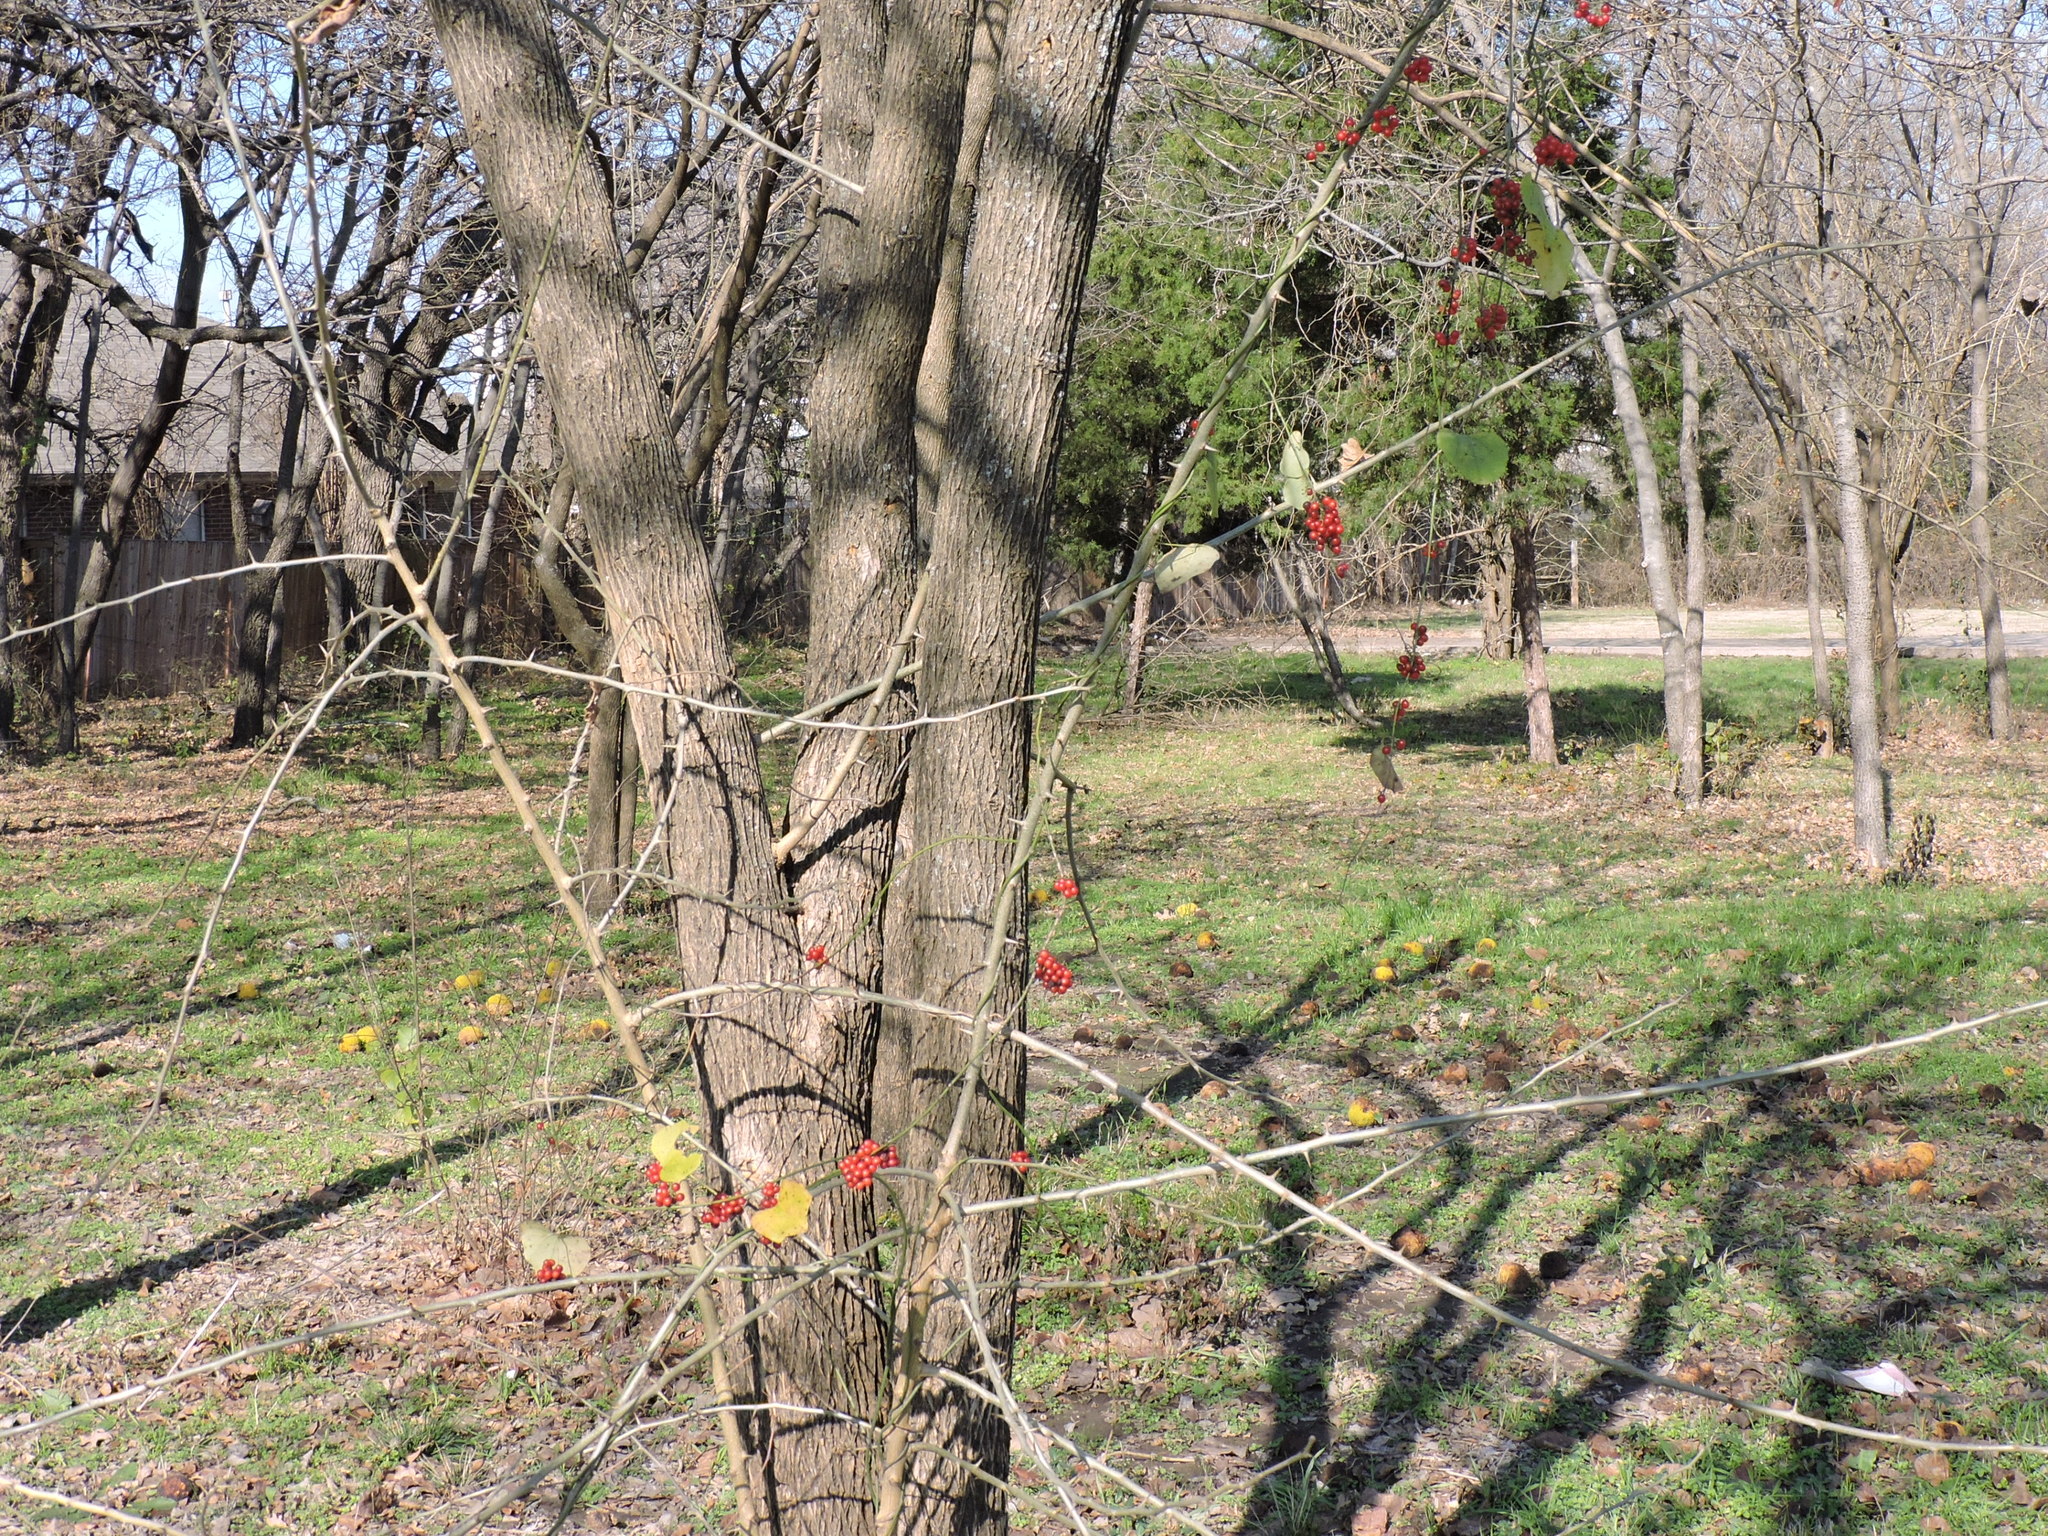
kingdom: Plantae
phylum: Tracheophyta
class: Magnoliopsida
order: Ranunculales
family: Menispermaceae
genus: Cocculus
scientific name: Cocculus carolinus
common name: Carolina moonseed
